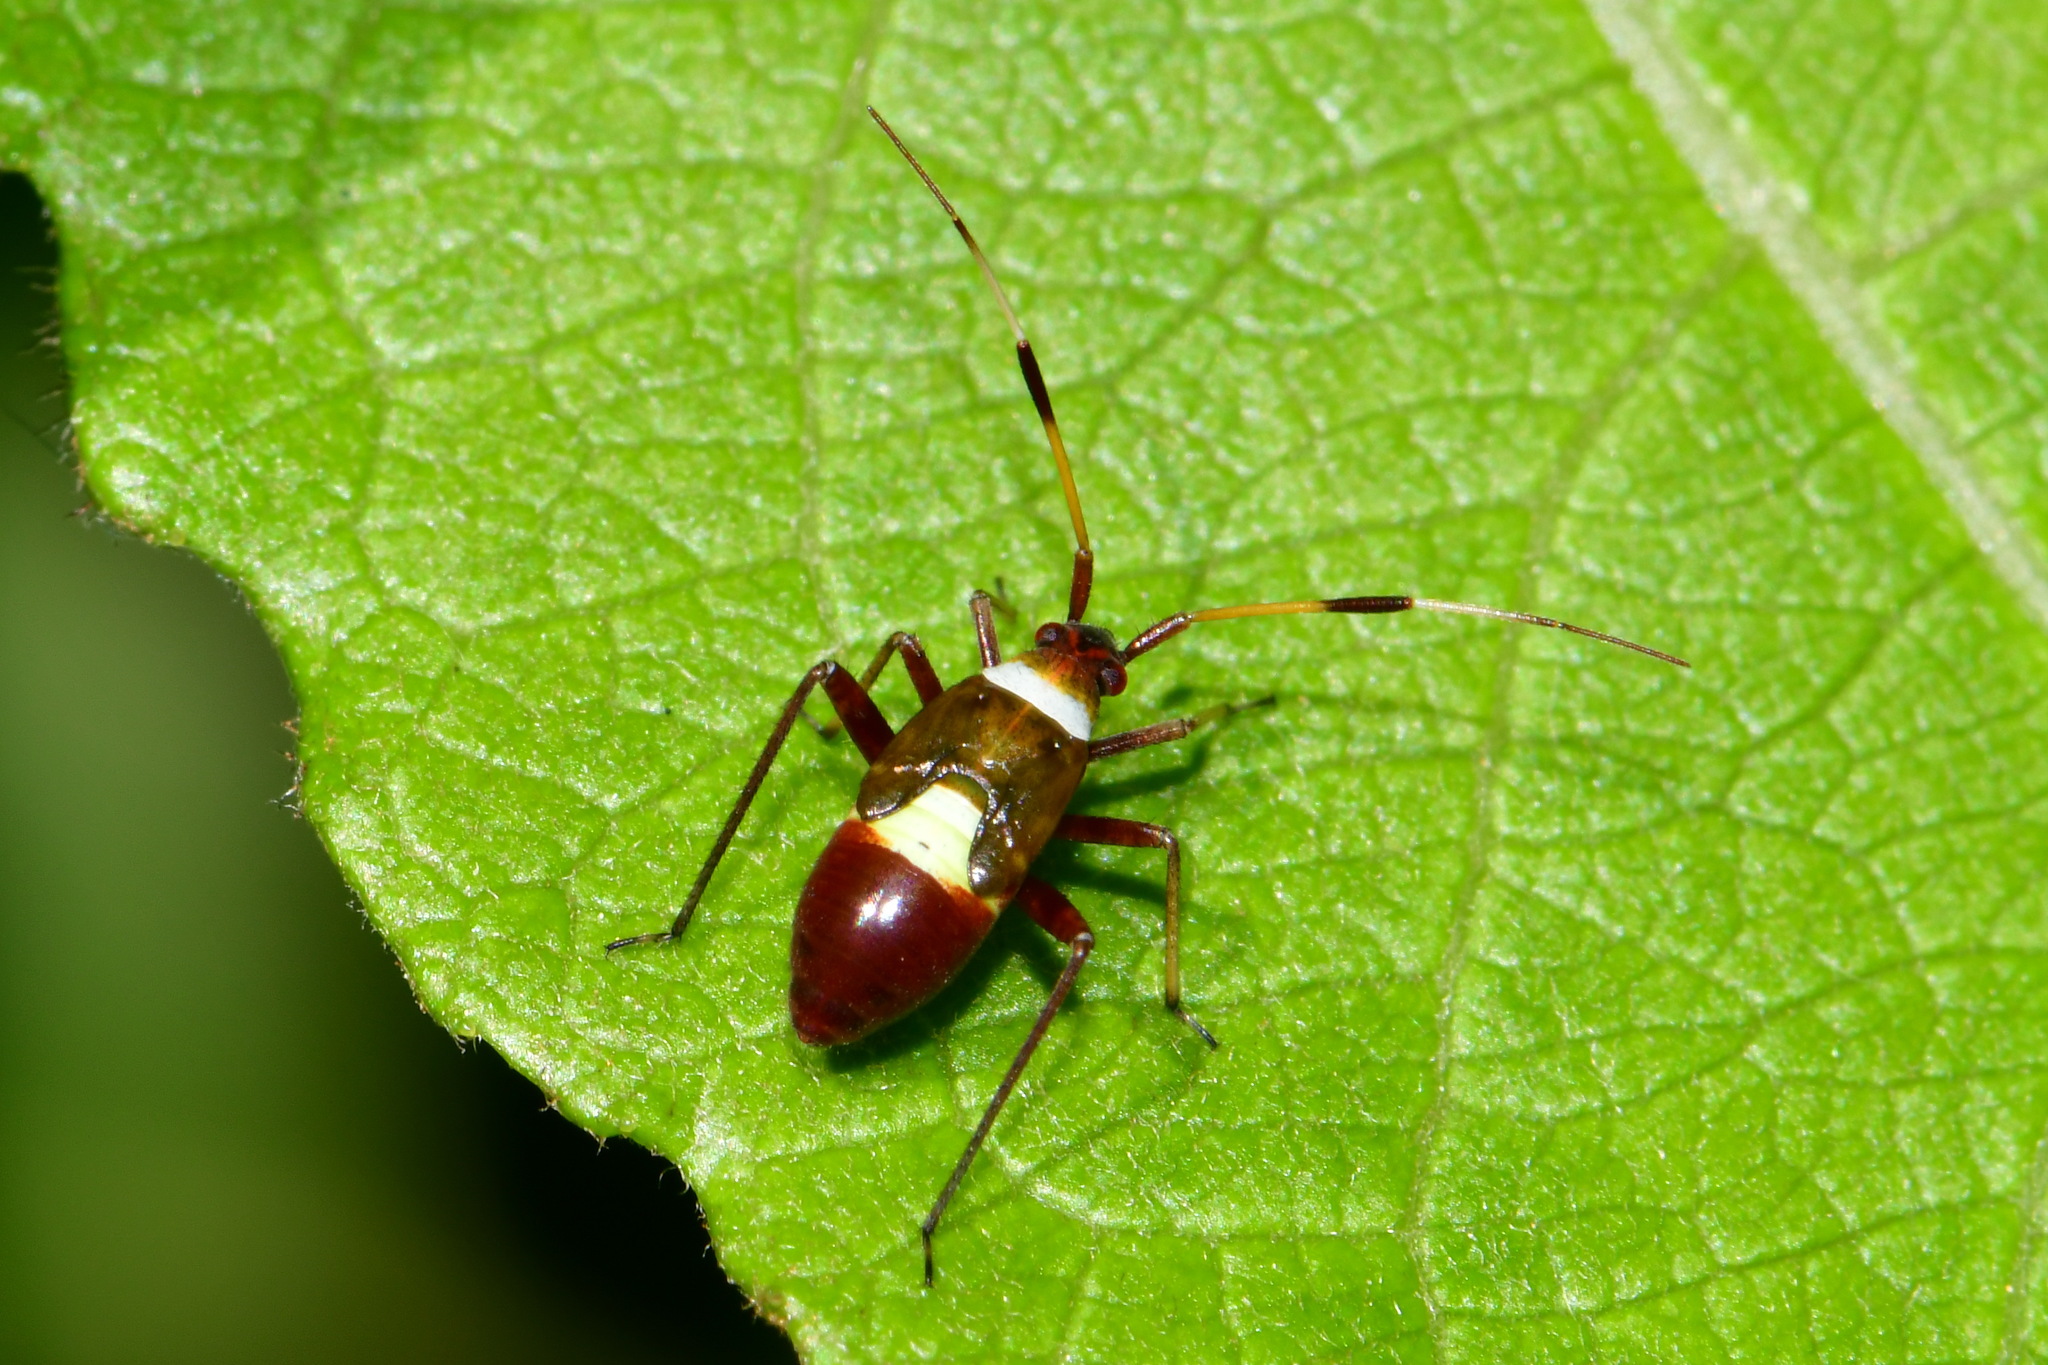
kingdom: Animalia
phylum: Arthropoda
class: Insecta
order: Hemiptera
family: Miridae
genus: Closterotomus
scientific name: Closterotomus biclavatus
